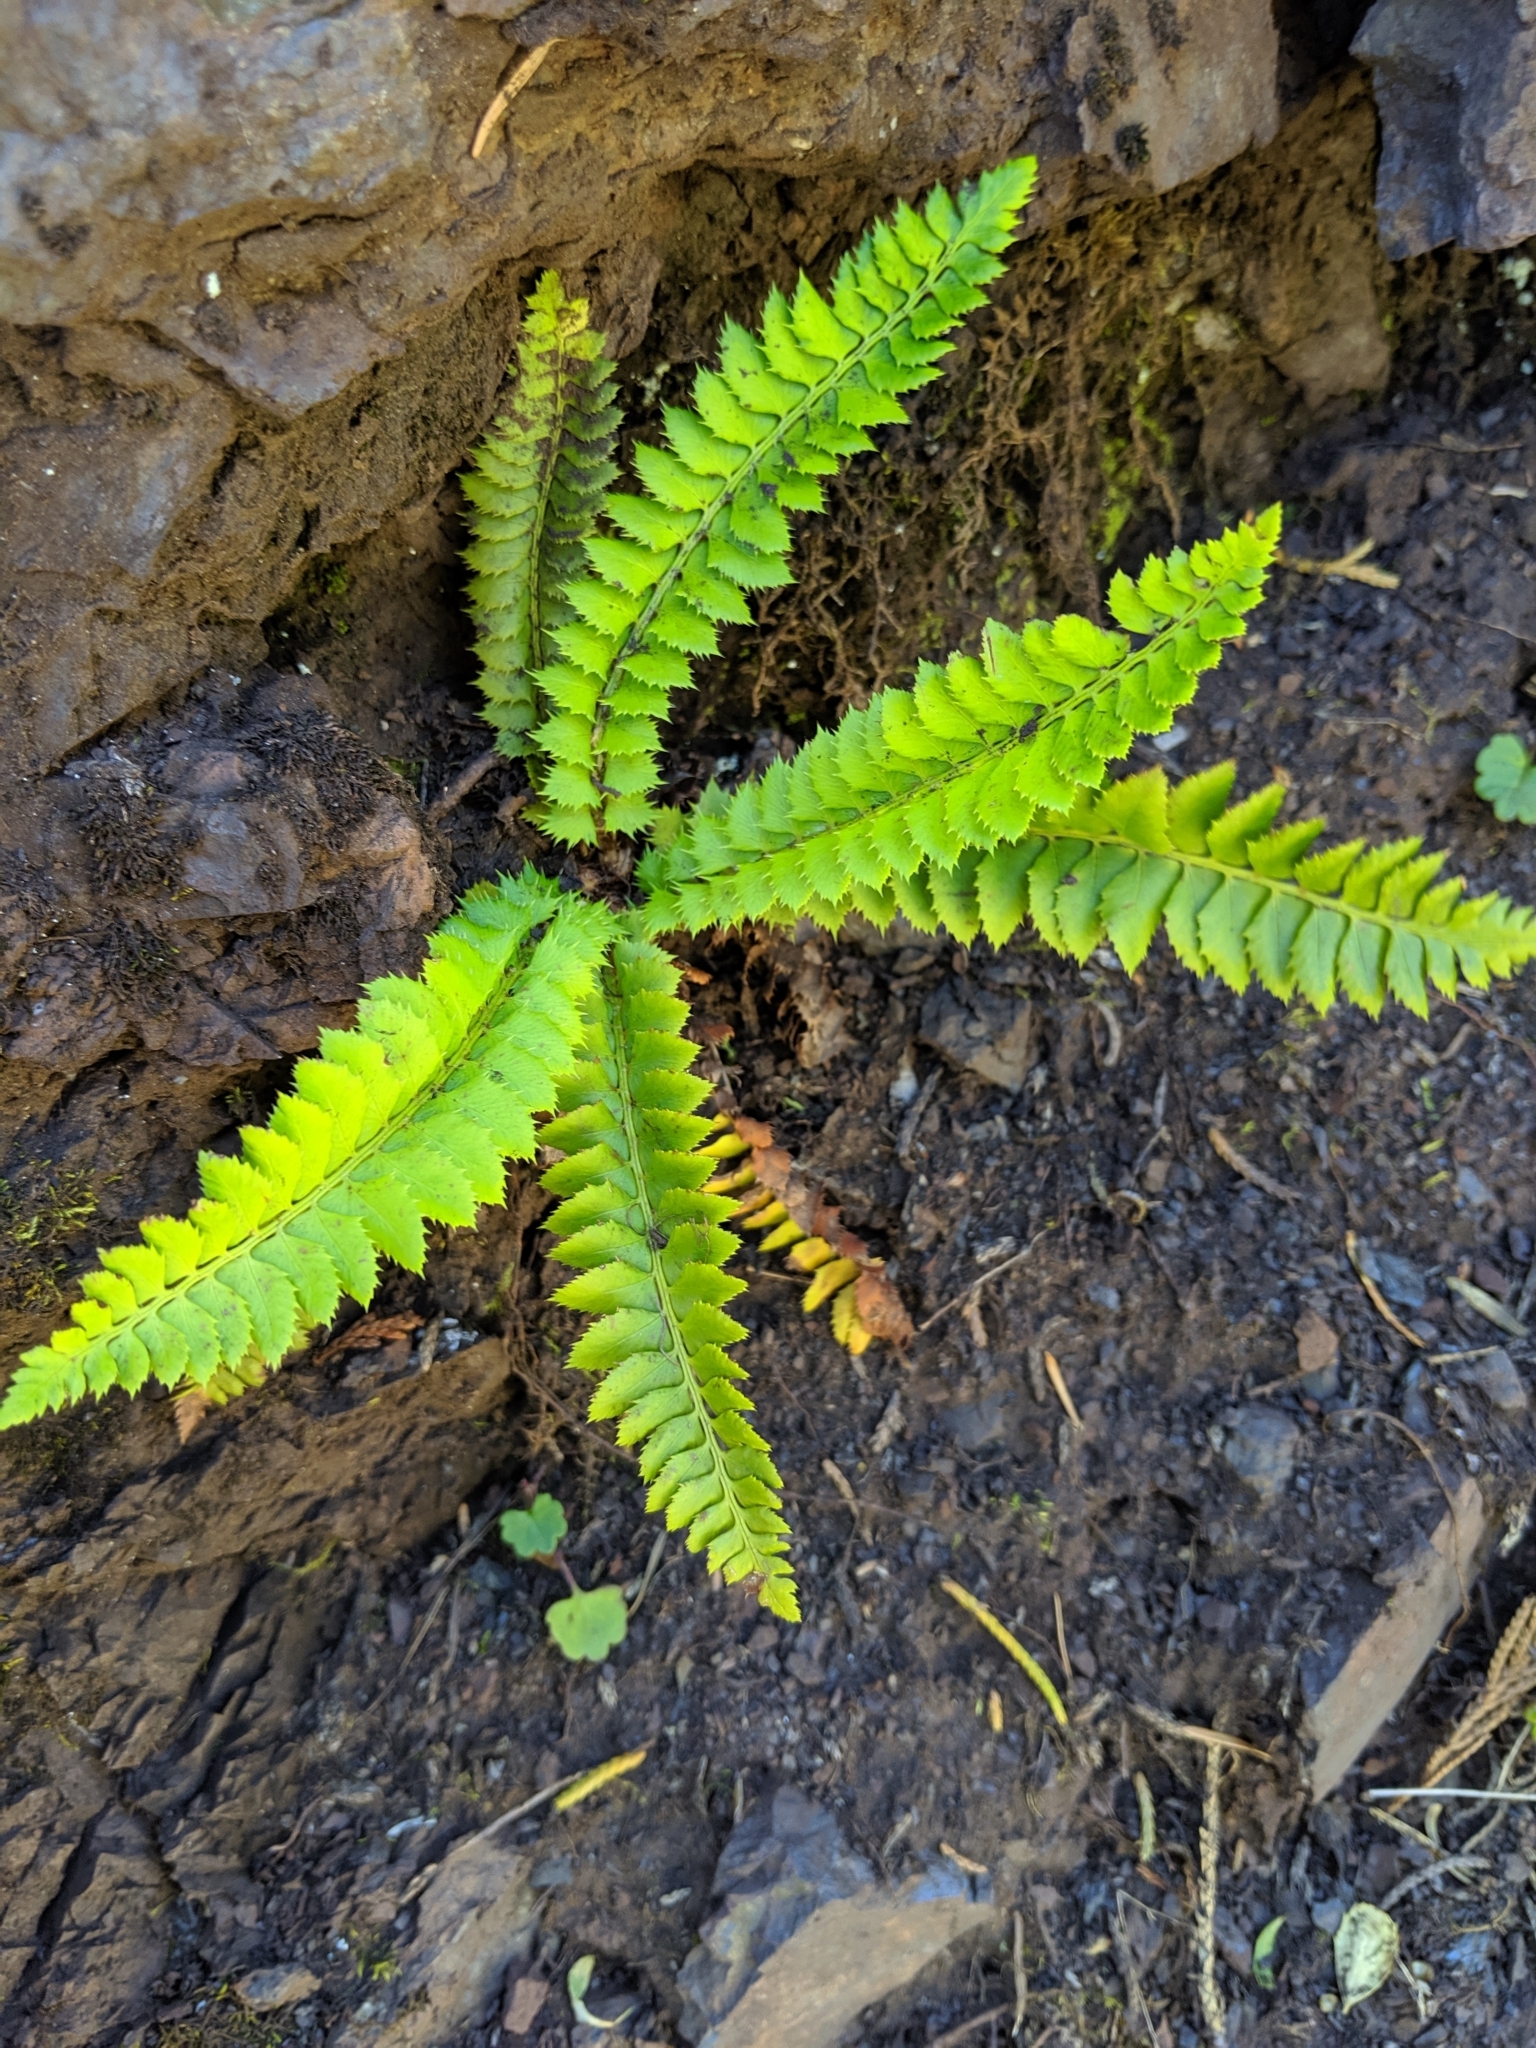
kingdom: Plantae
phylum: Tracheophyta
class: Polypodiopsida
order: Polypodiales
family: Dryopteridaceae
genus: Polystichum
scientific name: Polystichum lonchitis
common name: Holly fern
